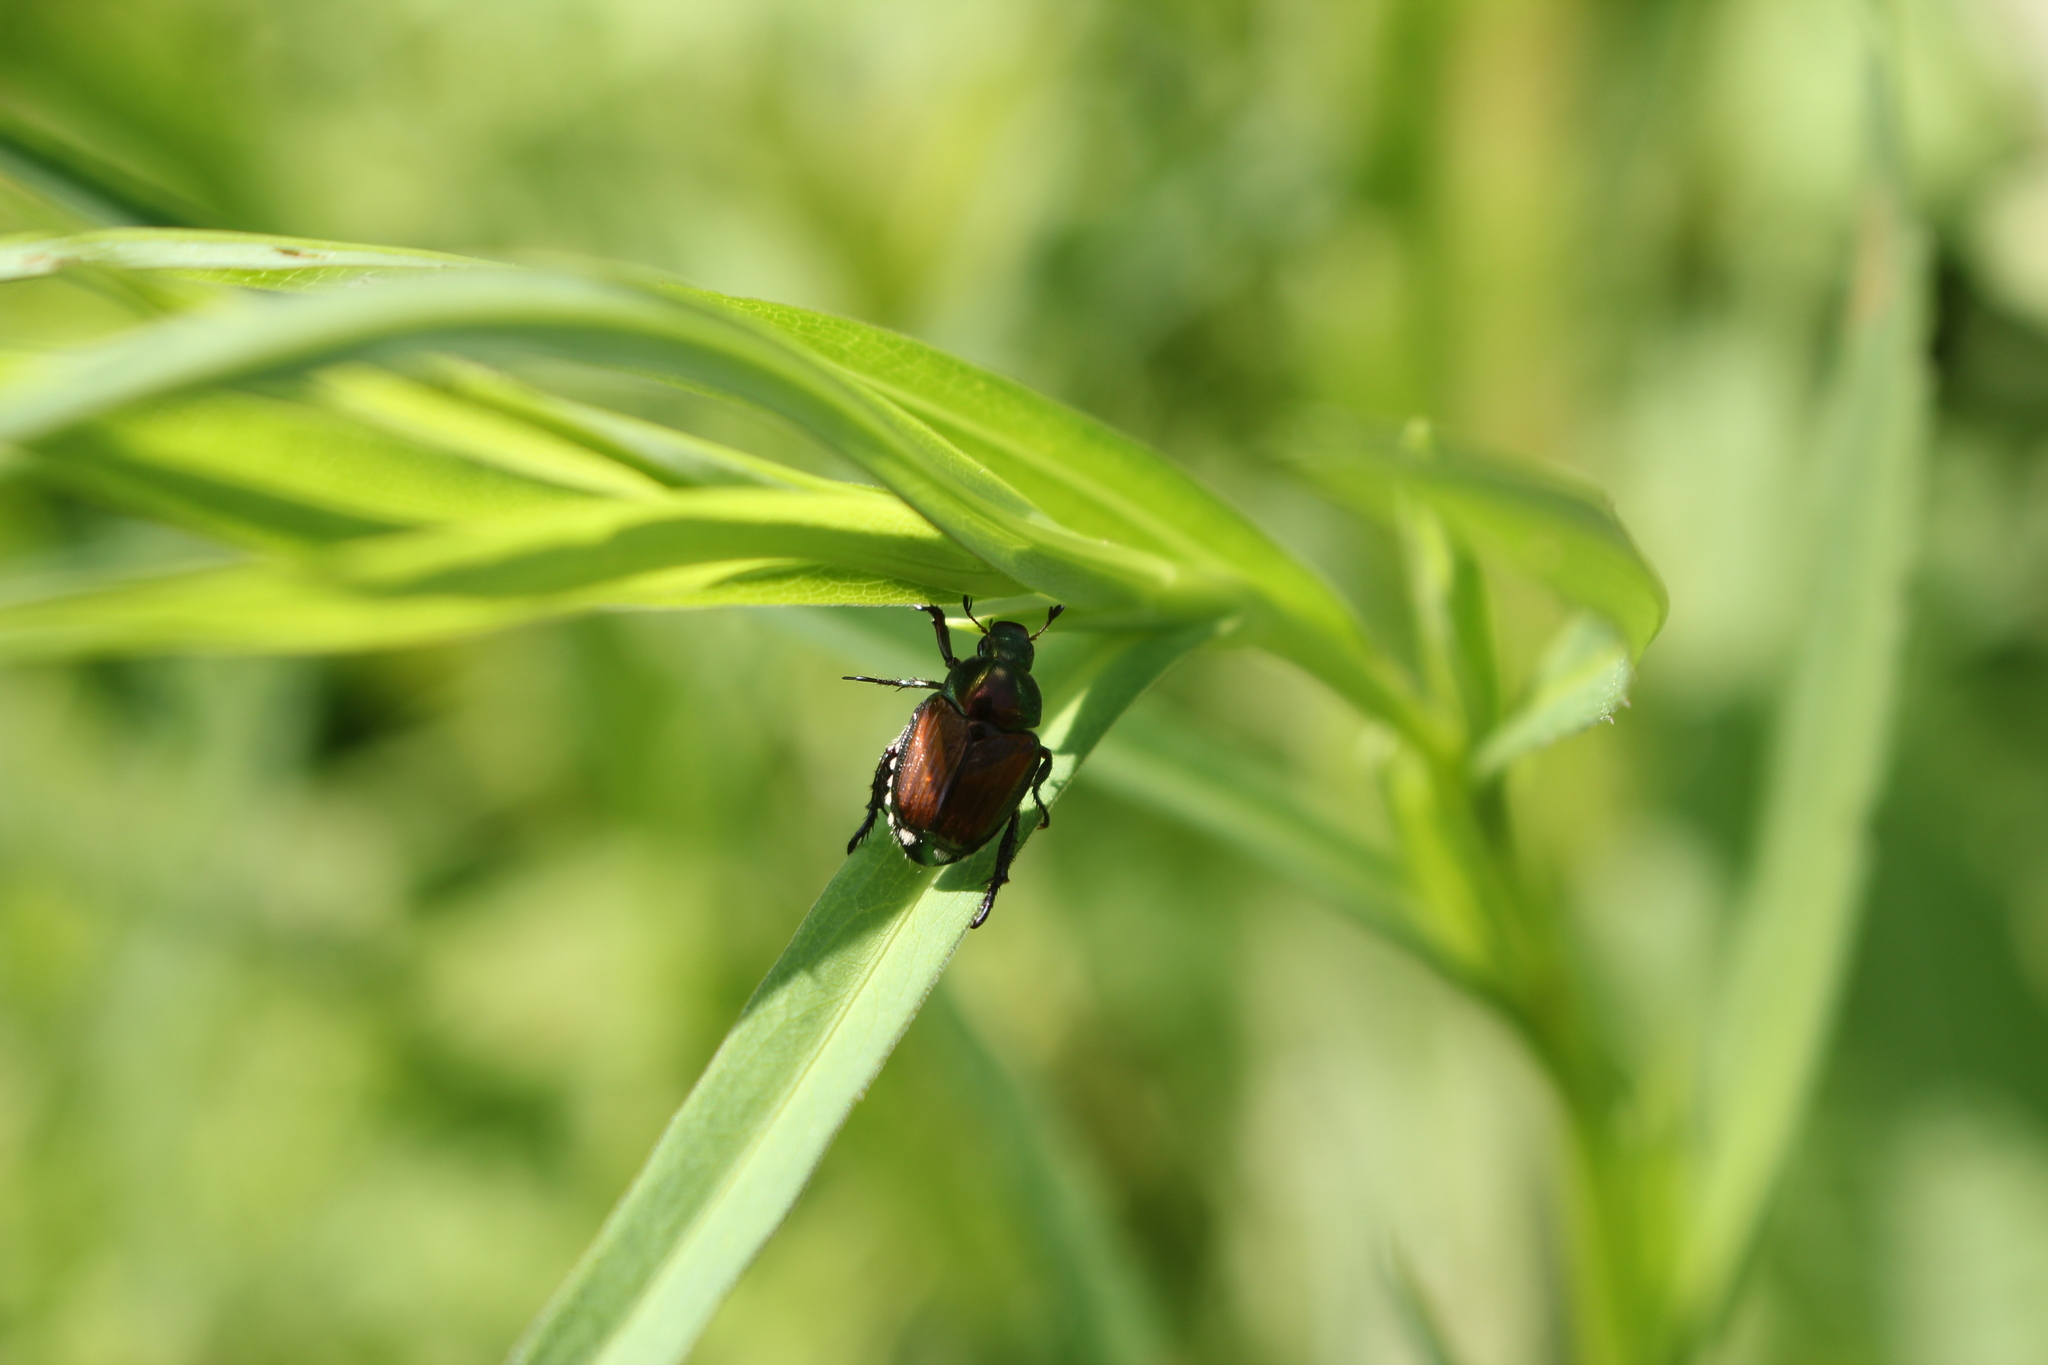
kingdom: Animalia
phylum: Arthropoda
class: Insecta
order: Coleoptera
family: Scarabaeidae
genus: Popillia
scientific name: Popillia japonica
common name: Japanese beetle
